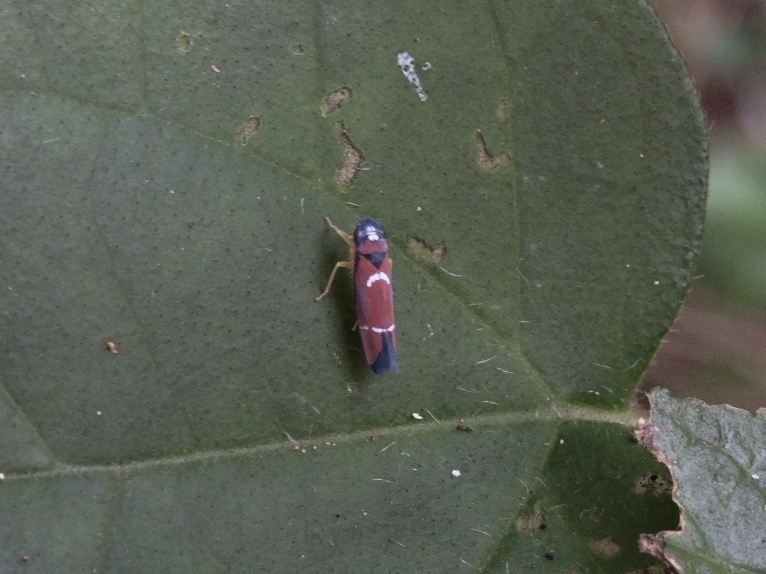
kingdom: Animalia
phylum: Arthropoda
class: Insecta
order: Hemiptera
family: Cicadellidae
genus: Erythrogonia
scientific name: Erythrogonia excisa
